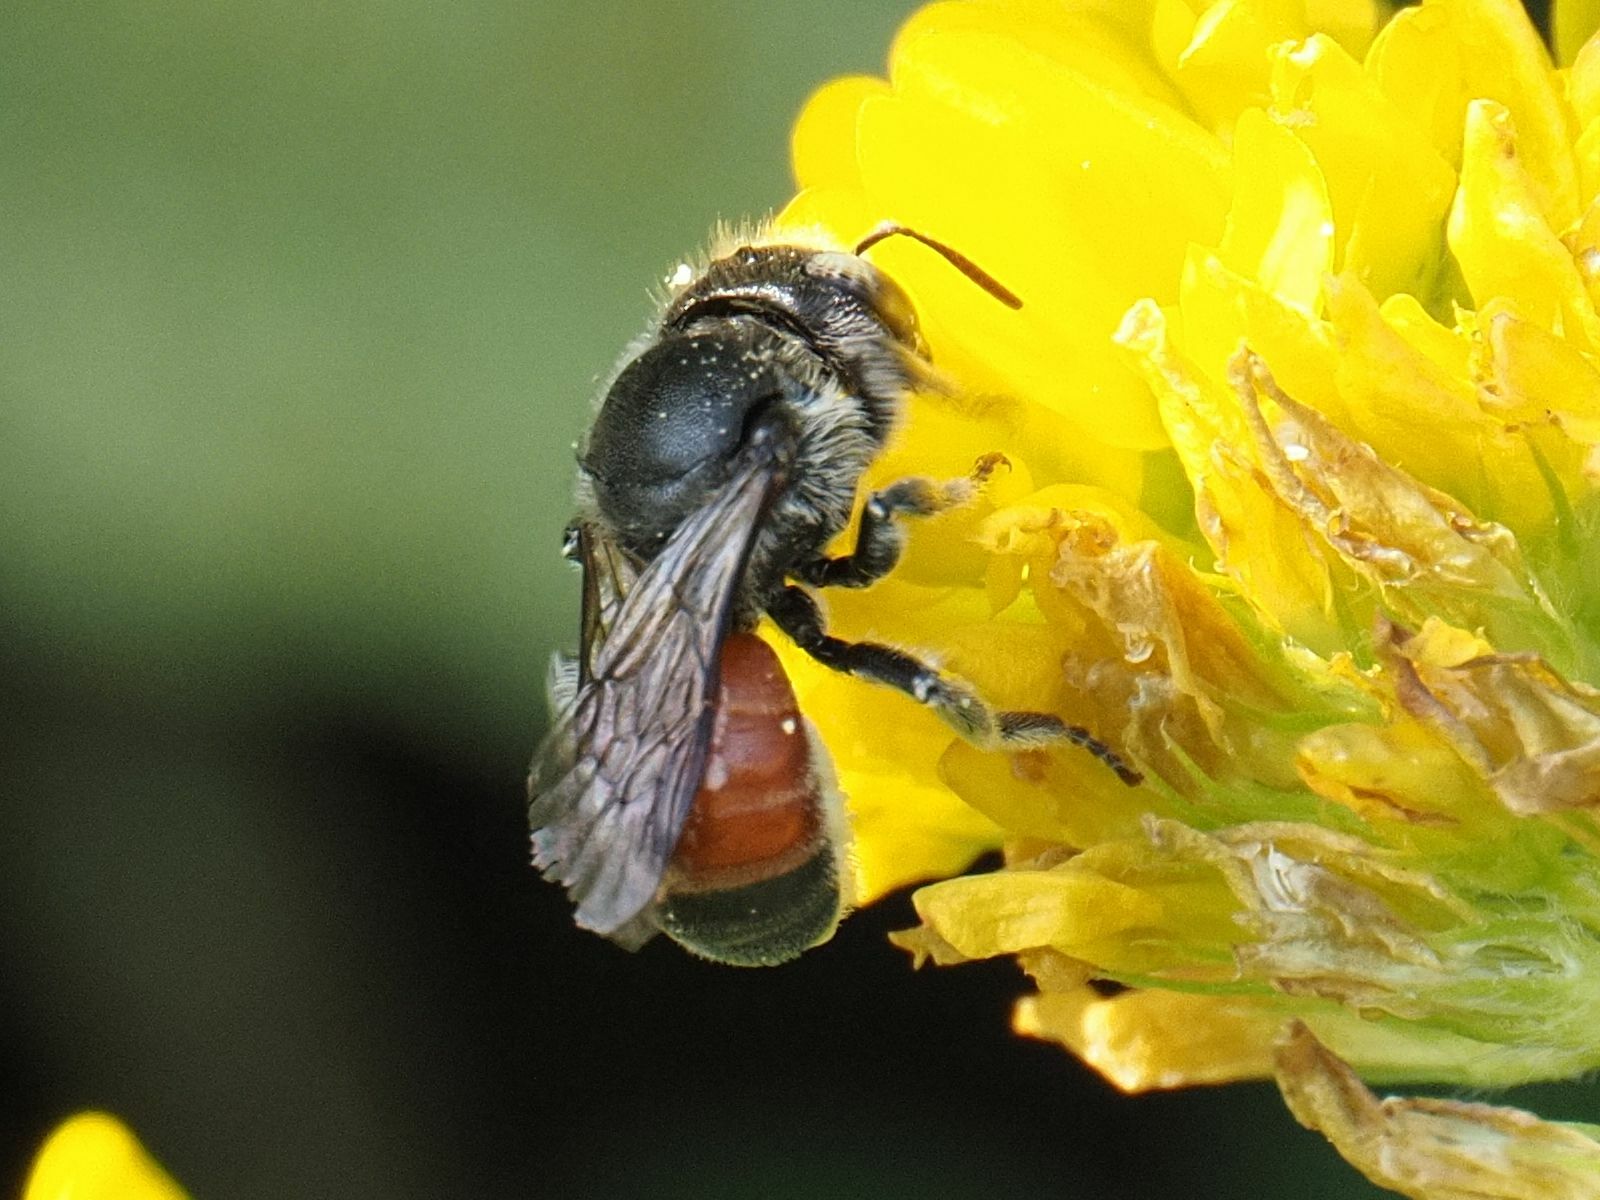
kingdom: Animalia
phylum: Arthropoda
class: Insecta
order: Hymenoptera
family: Megachilidae
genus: Osmia
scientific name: Osmia andrenoides
